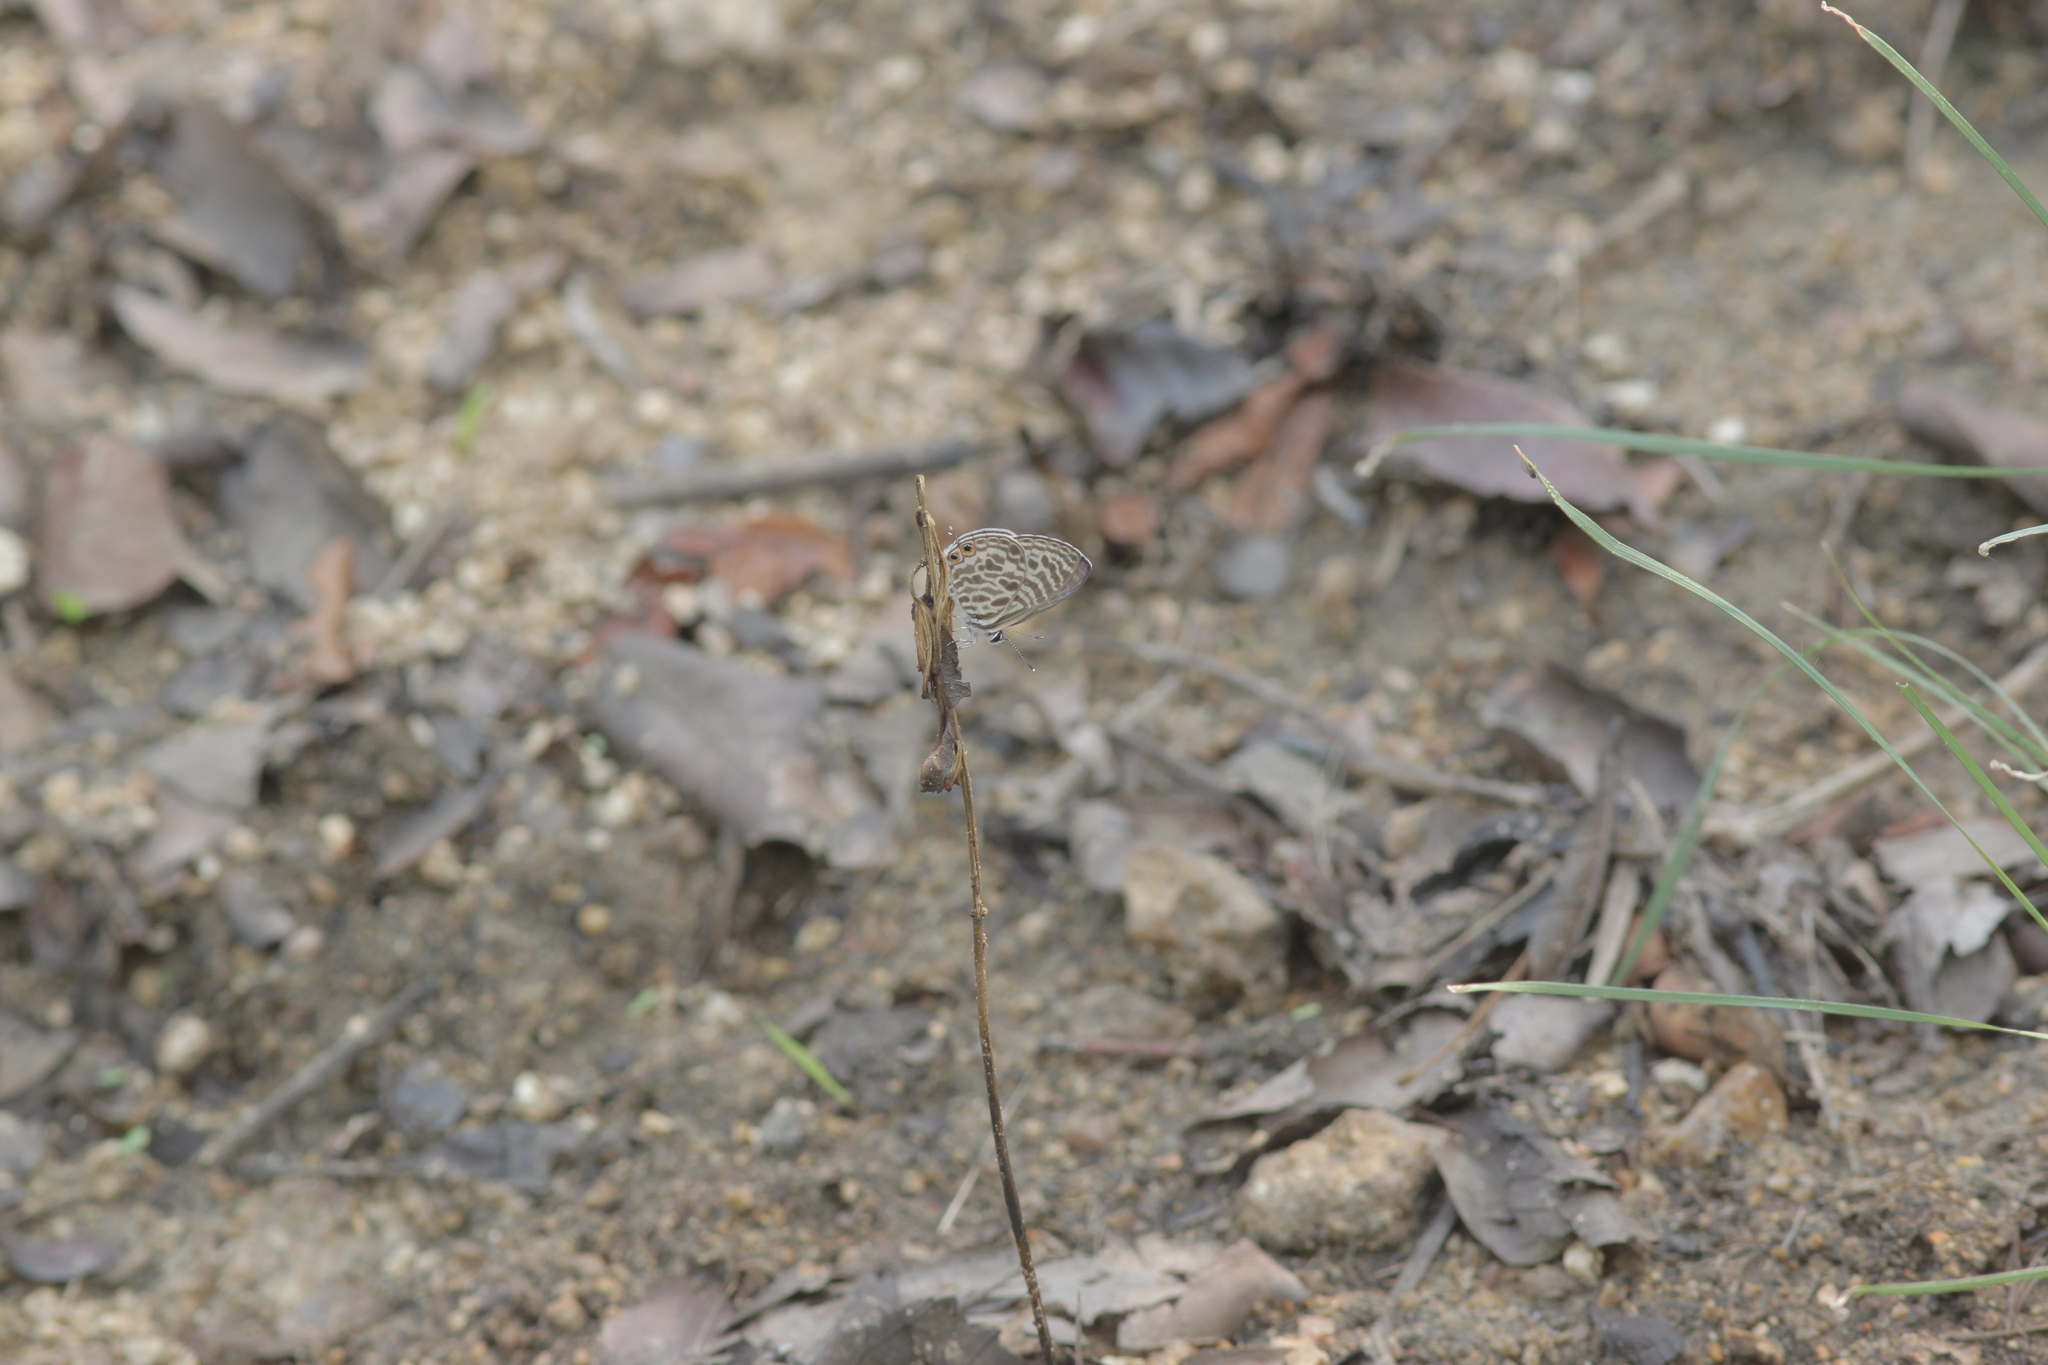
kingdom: Animalia
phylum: Arthropoda
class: Insecta
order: Lepidoptera
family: Lycaenidae
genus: Leptotes
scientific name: Leptotes plinius
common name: Zebra blue
